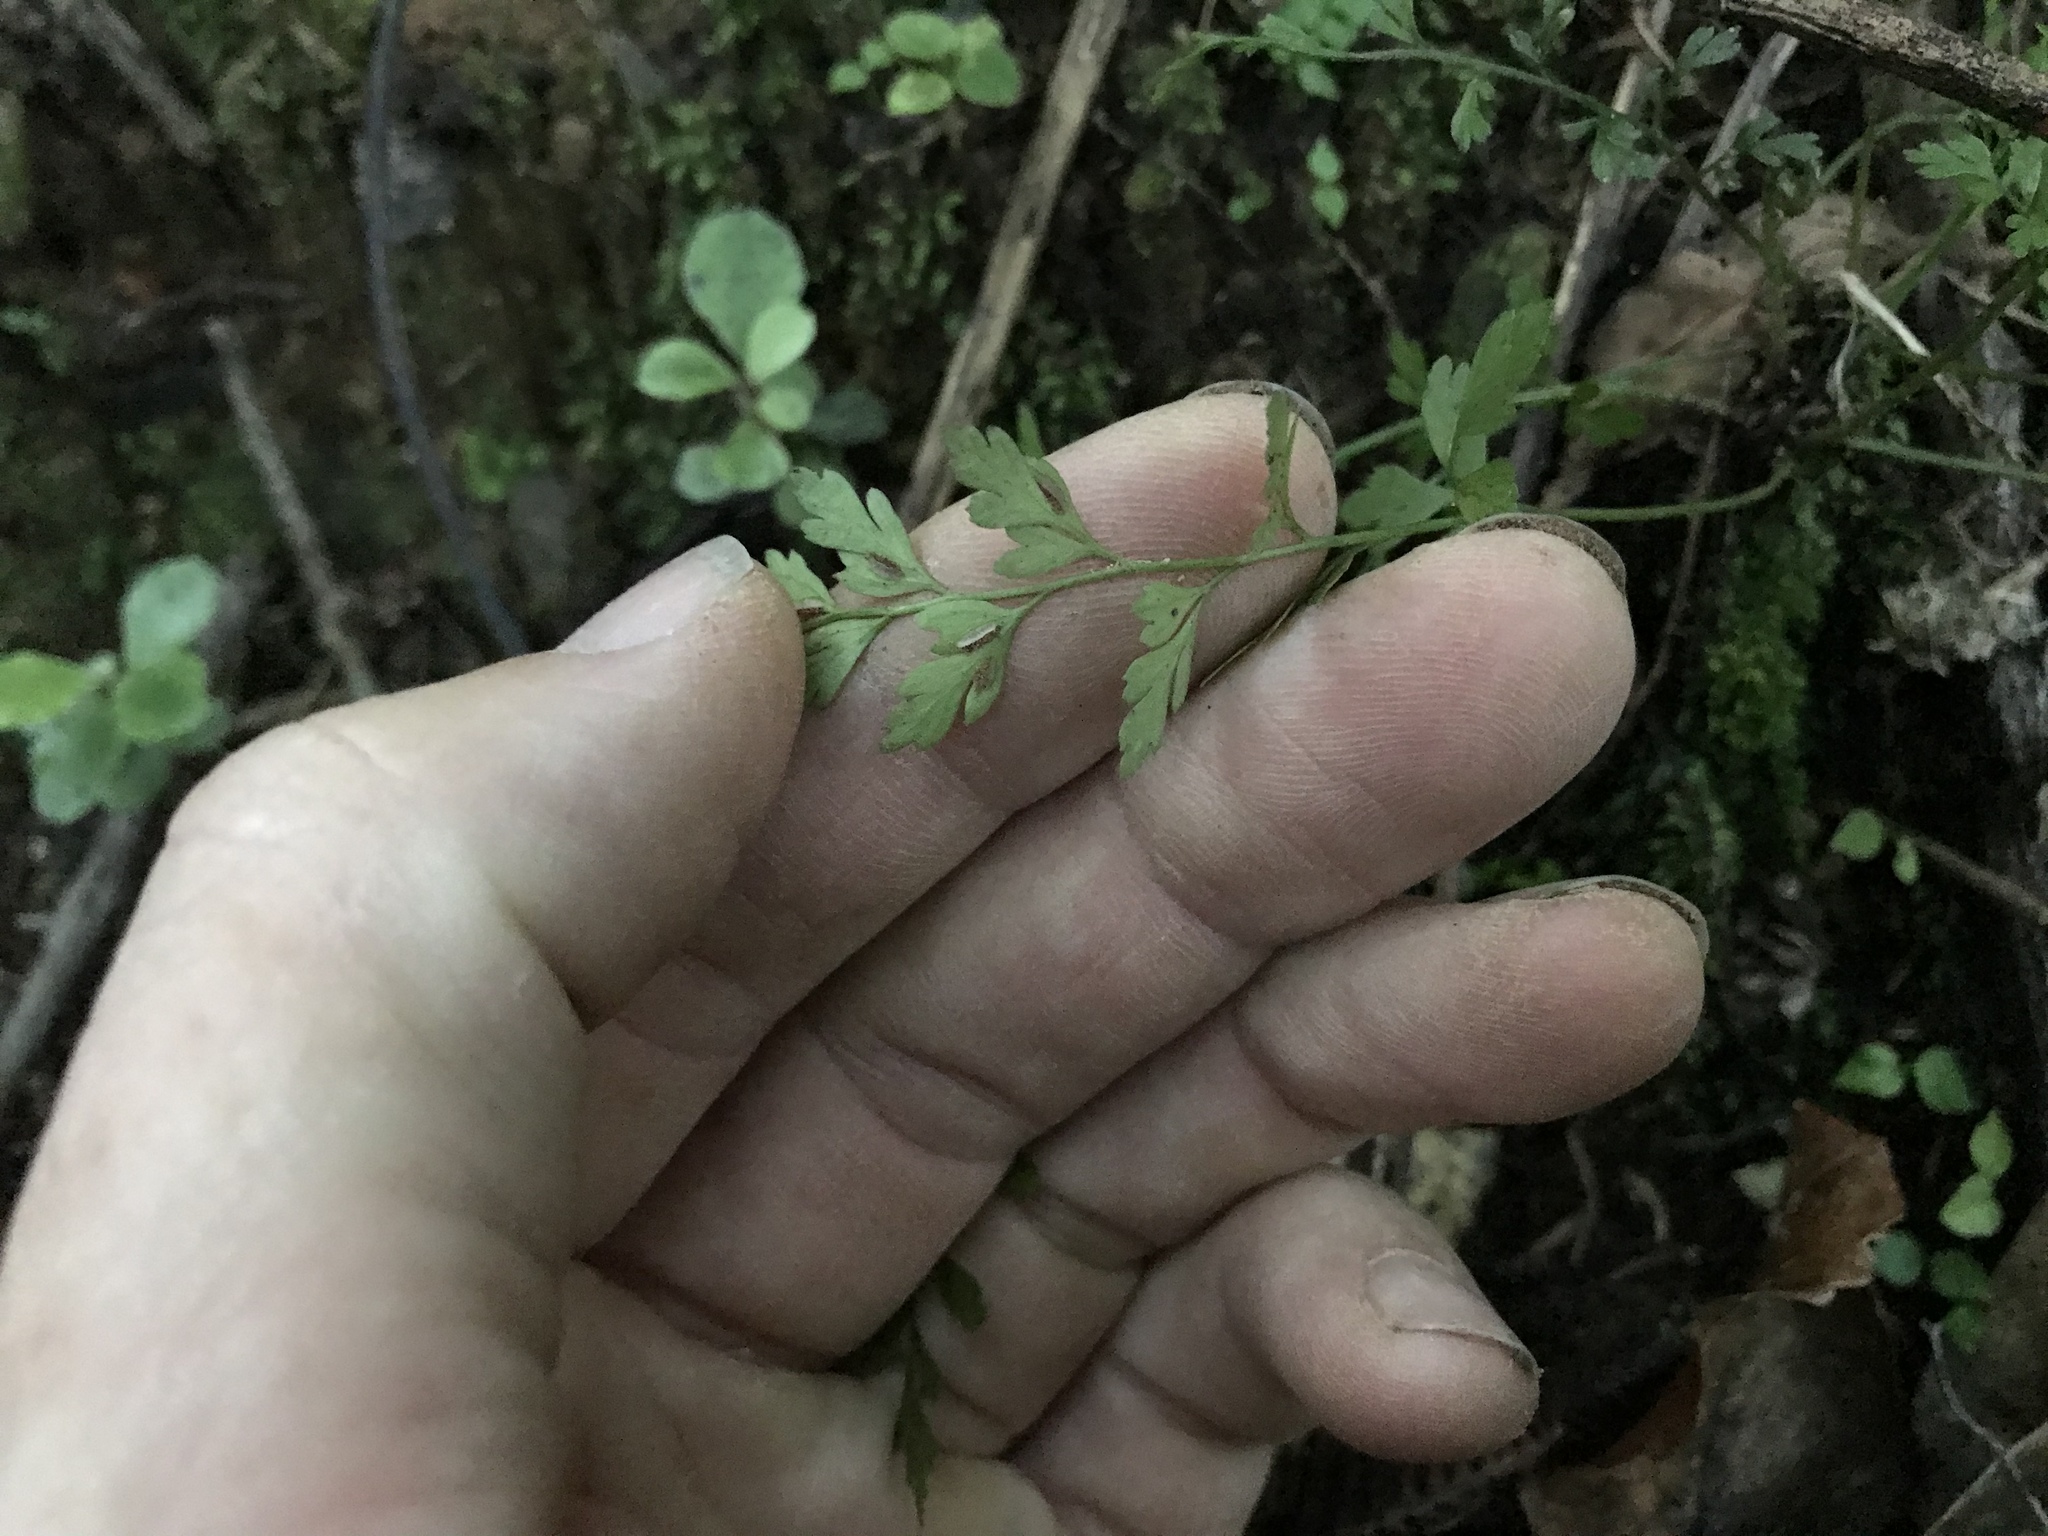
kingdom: Plantae
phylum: Tracheophyta
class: Polypodiopsida
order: Polypodiales
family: Aspleniaceae
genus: Asplenium
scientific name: Asplenium hookerianum
